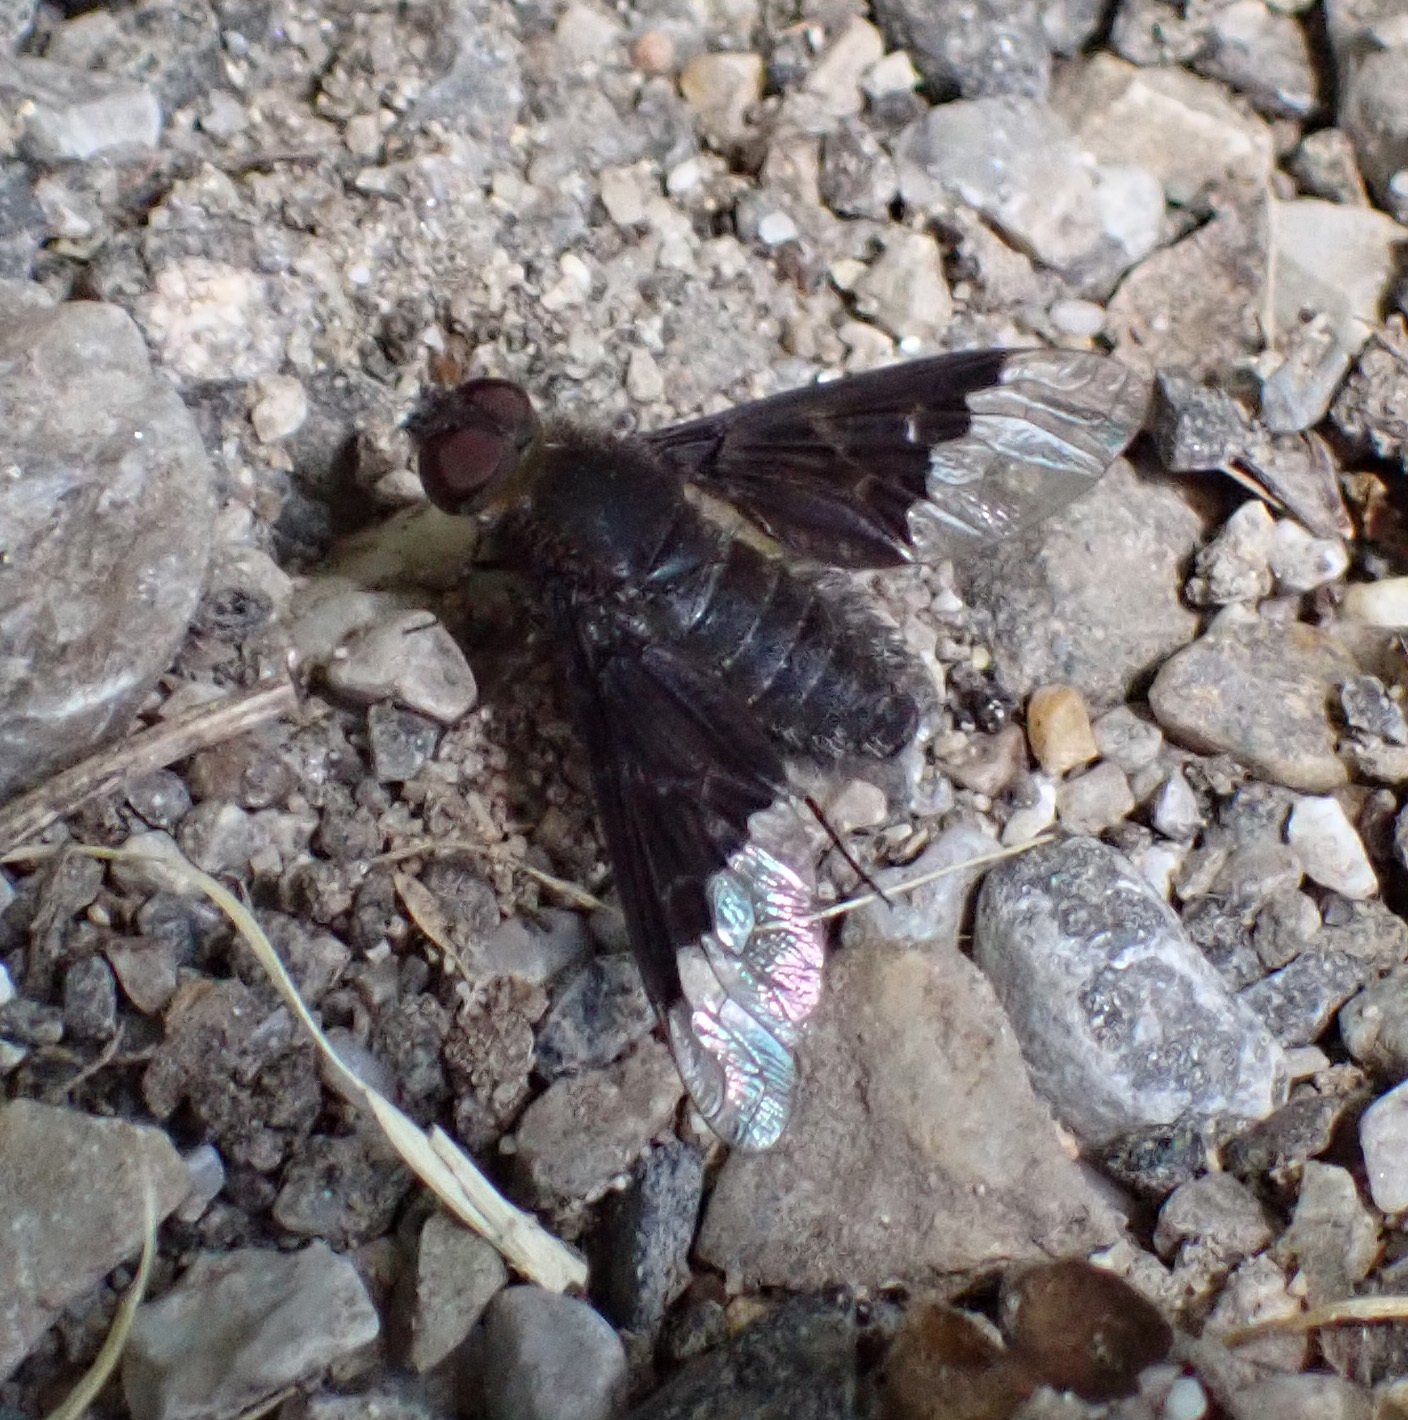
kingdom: Animalia
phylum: Arthropoda
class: Insecta
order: Diptera
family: Bombyliidae
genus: Hemipenthes
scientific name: Hemipenthes morio
